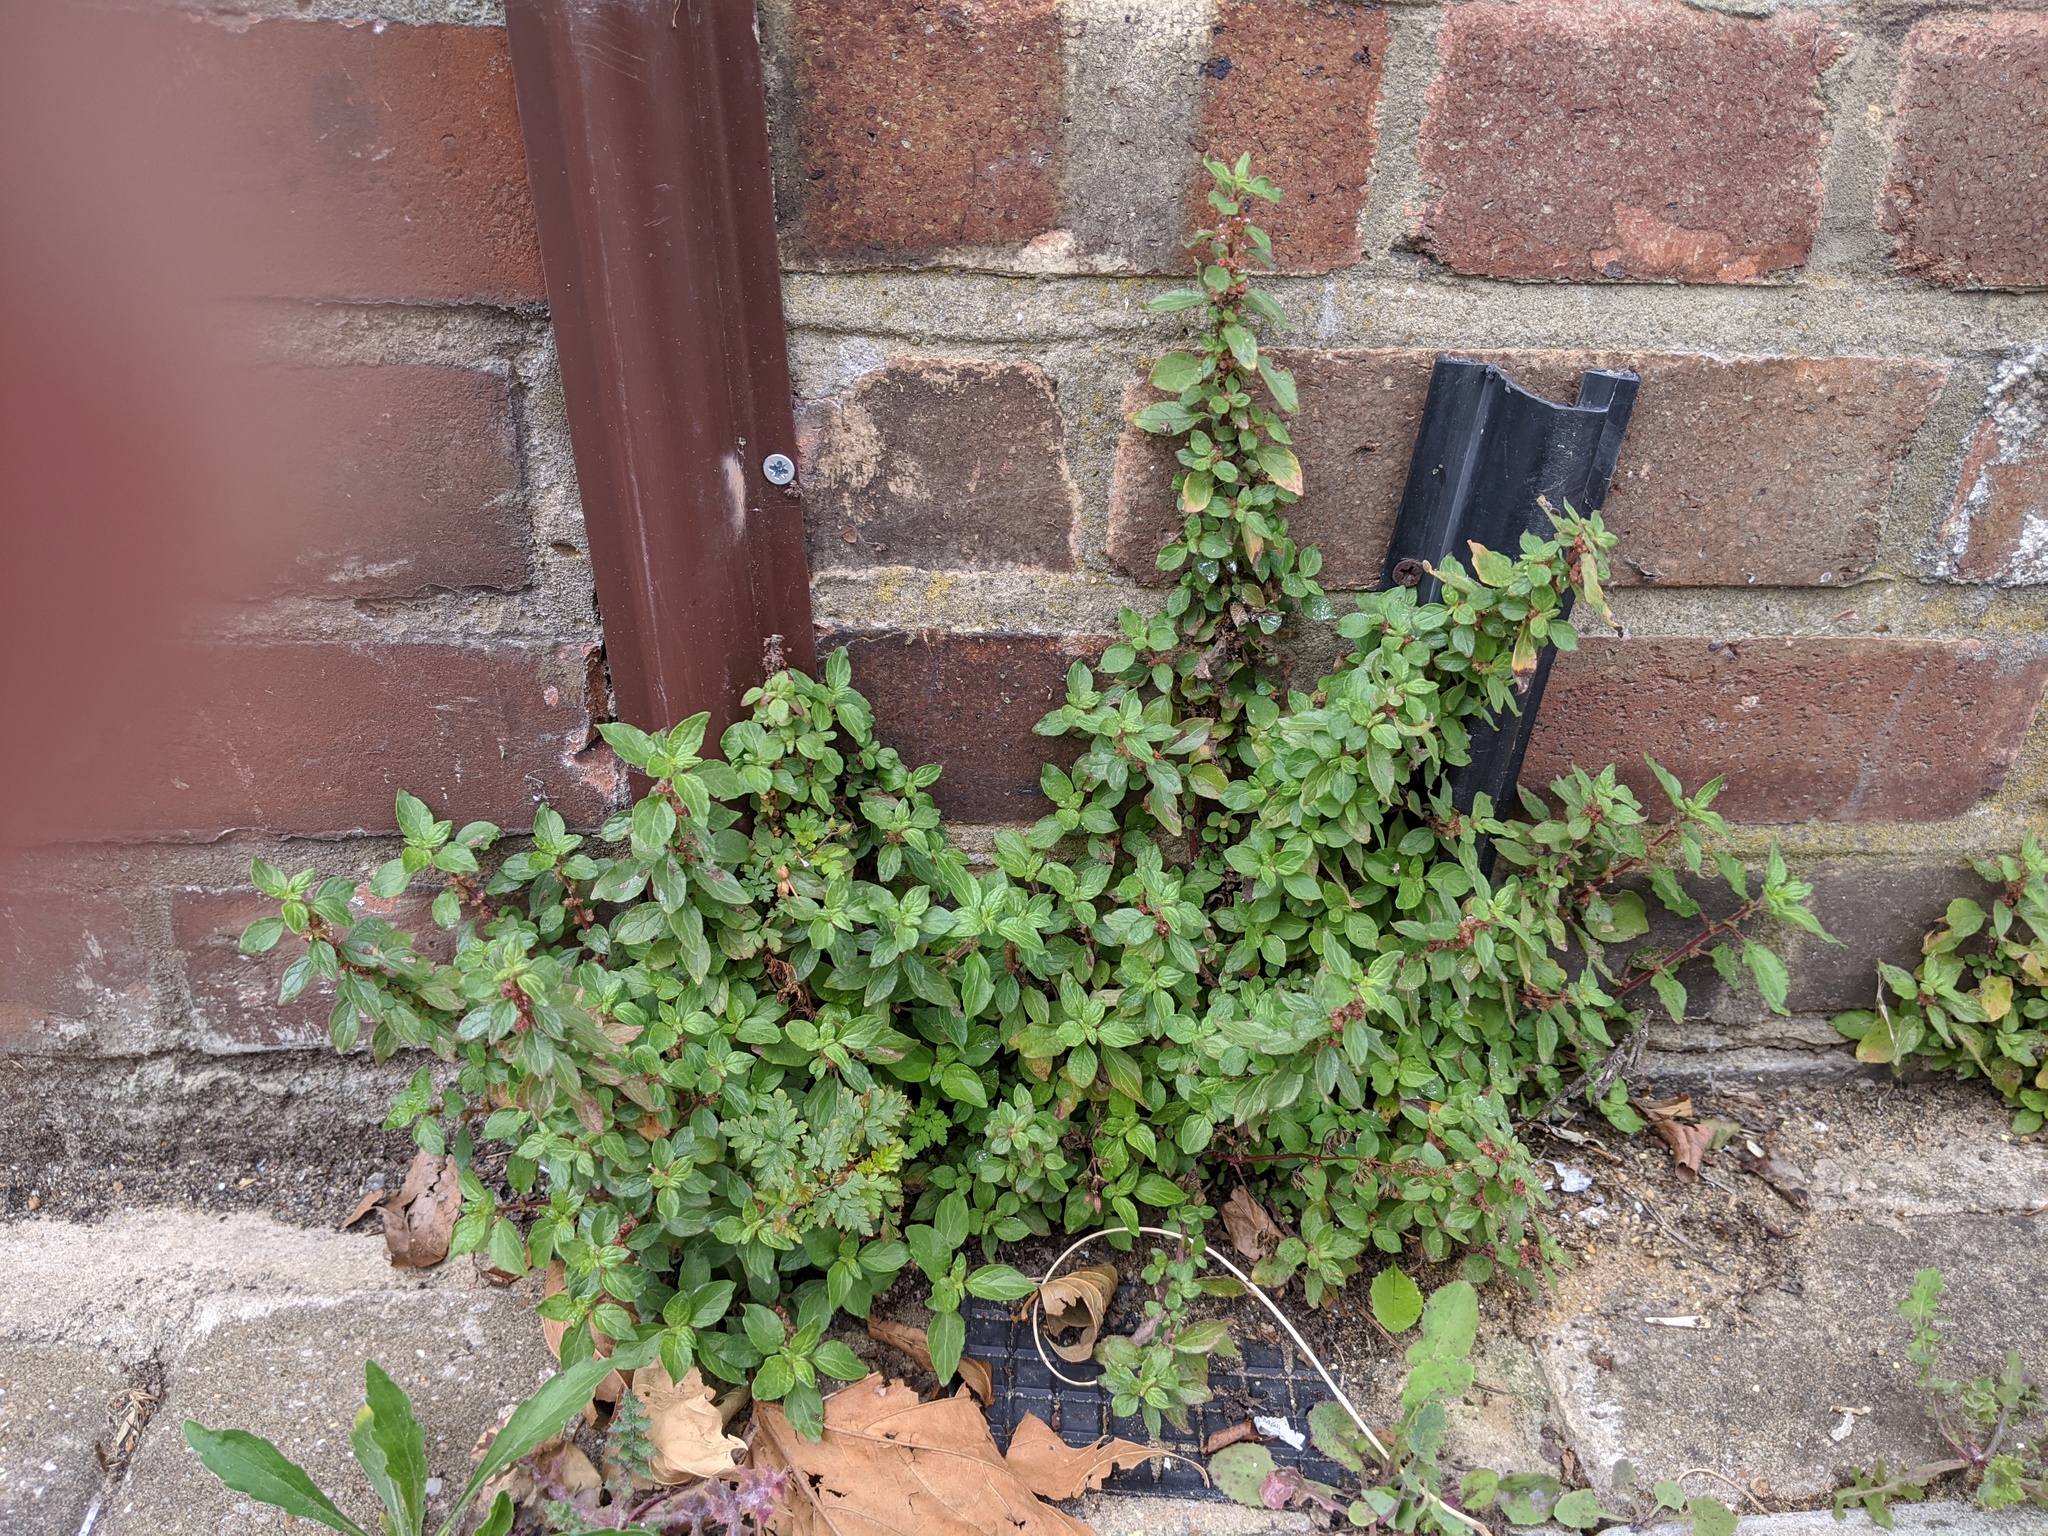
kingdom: Plantae
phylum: Tracheophyta
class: Magnoliopsida
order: Rosales
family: Urticaceae
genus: Parietaria
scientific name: Parietaria judaica
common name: Pellitory-of-the-wall
